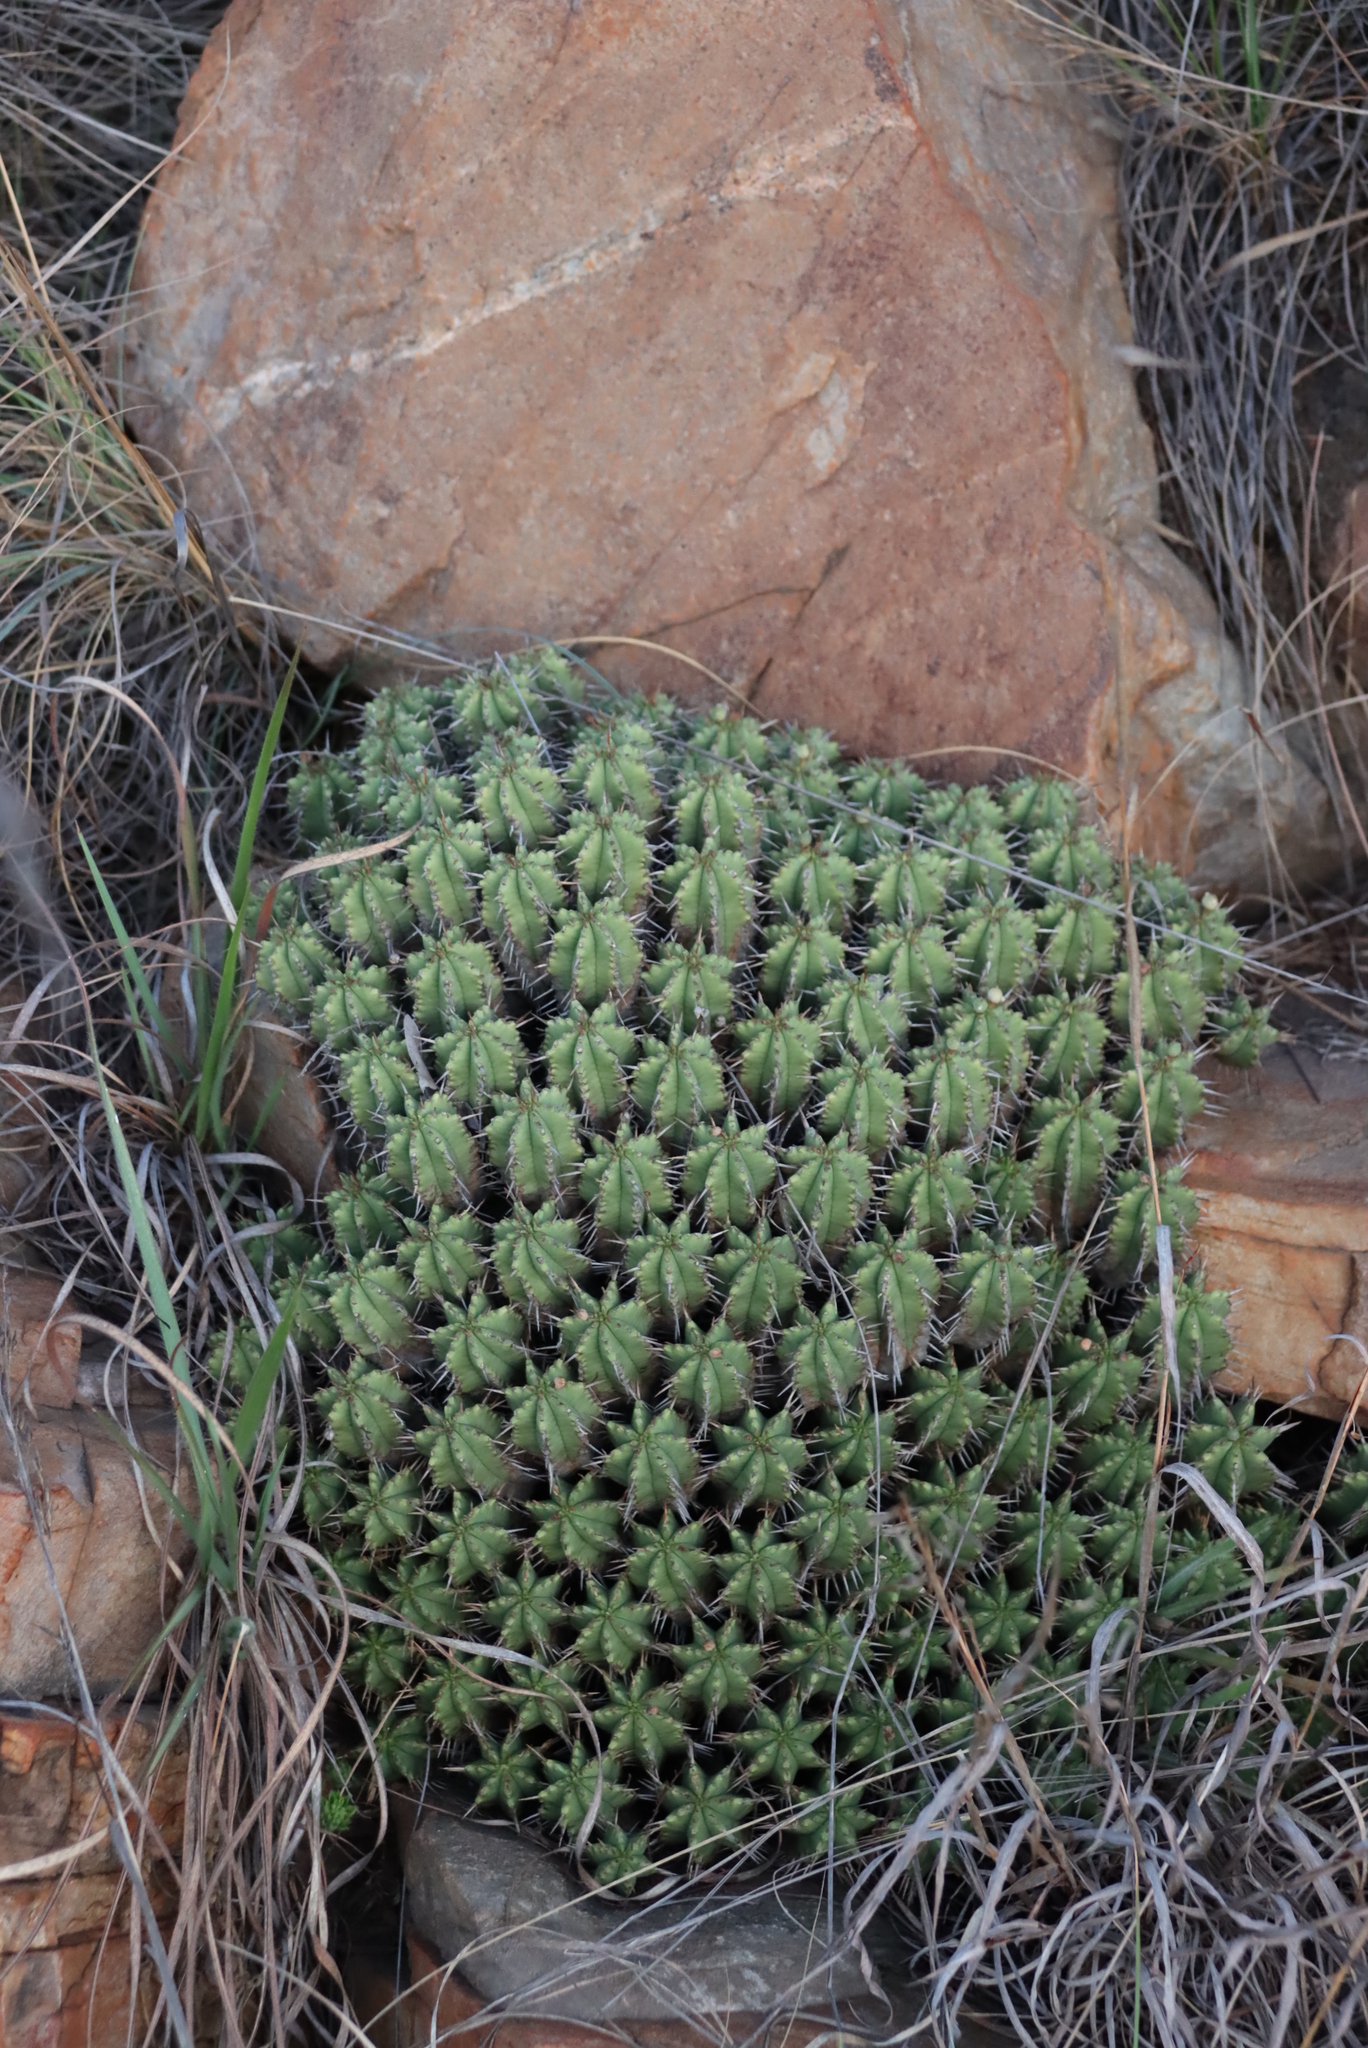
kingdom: Plantae
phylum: Tracheophyta
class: Magnoliopsida
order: Malpighiales
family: Euphorbiaceae
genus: Euphorbia
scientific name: Euphorbia pulvinata
